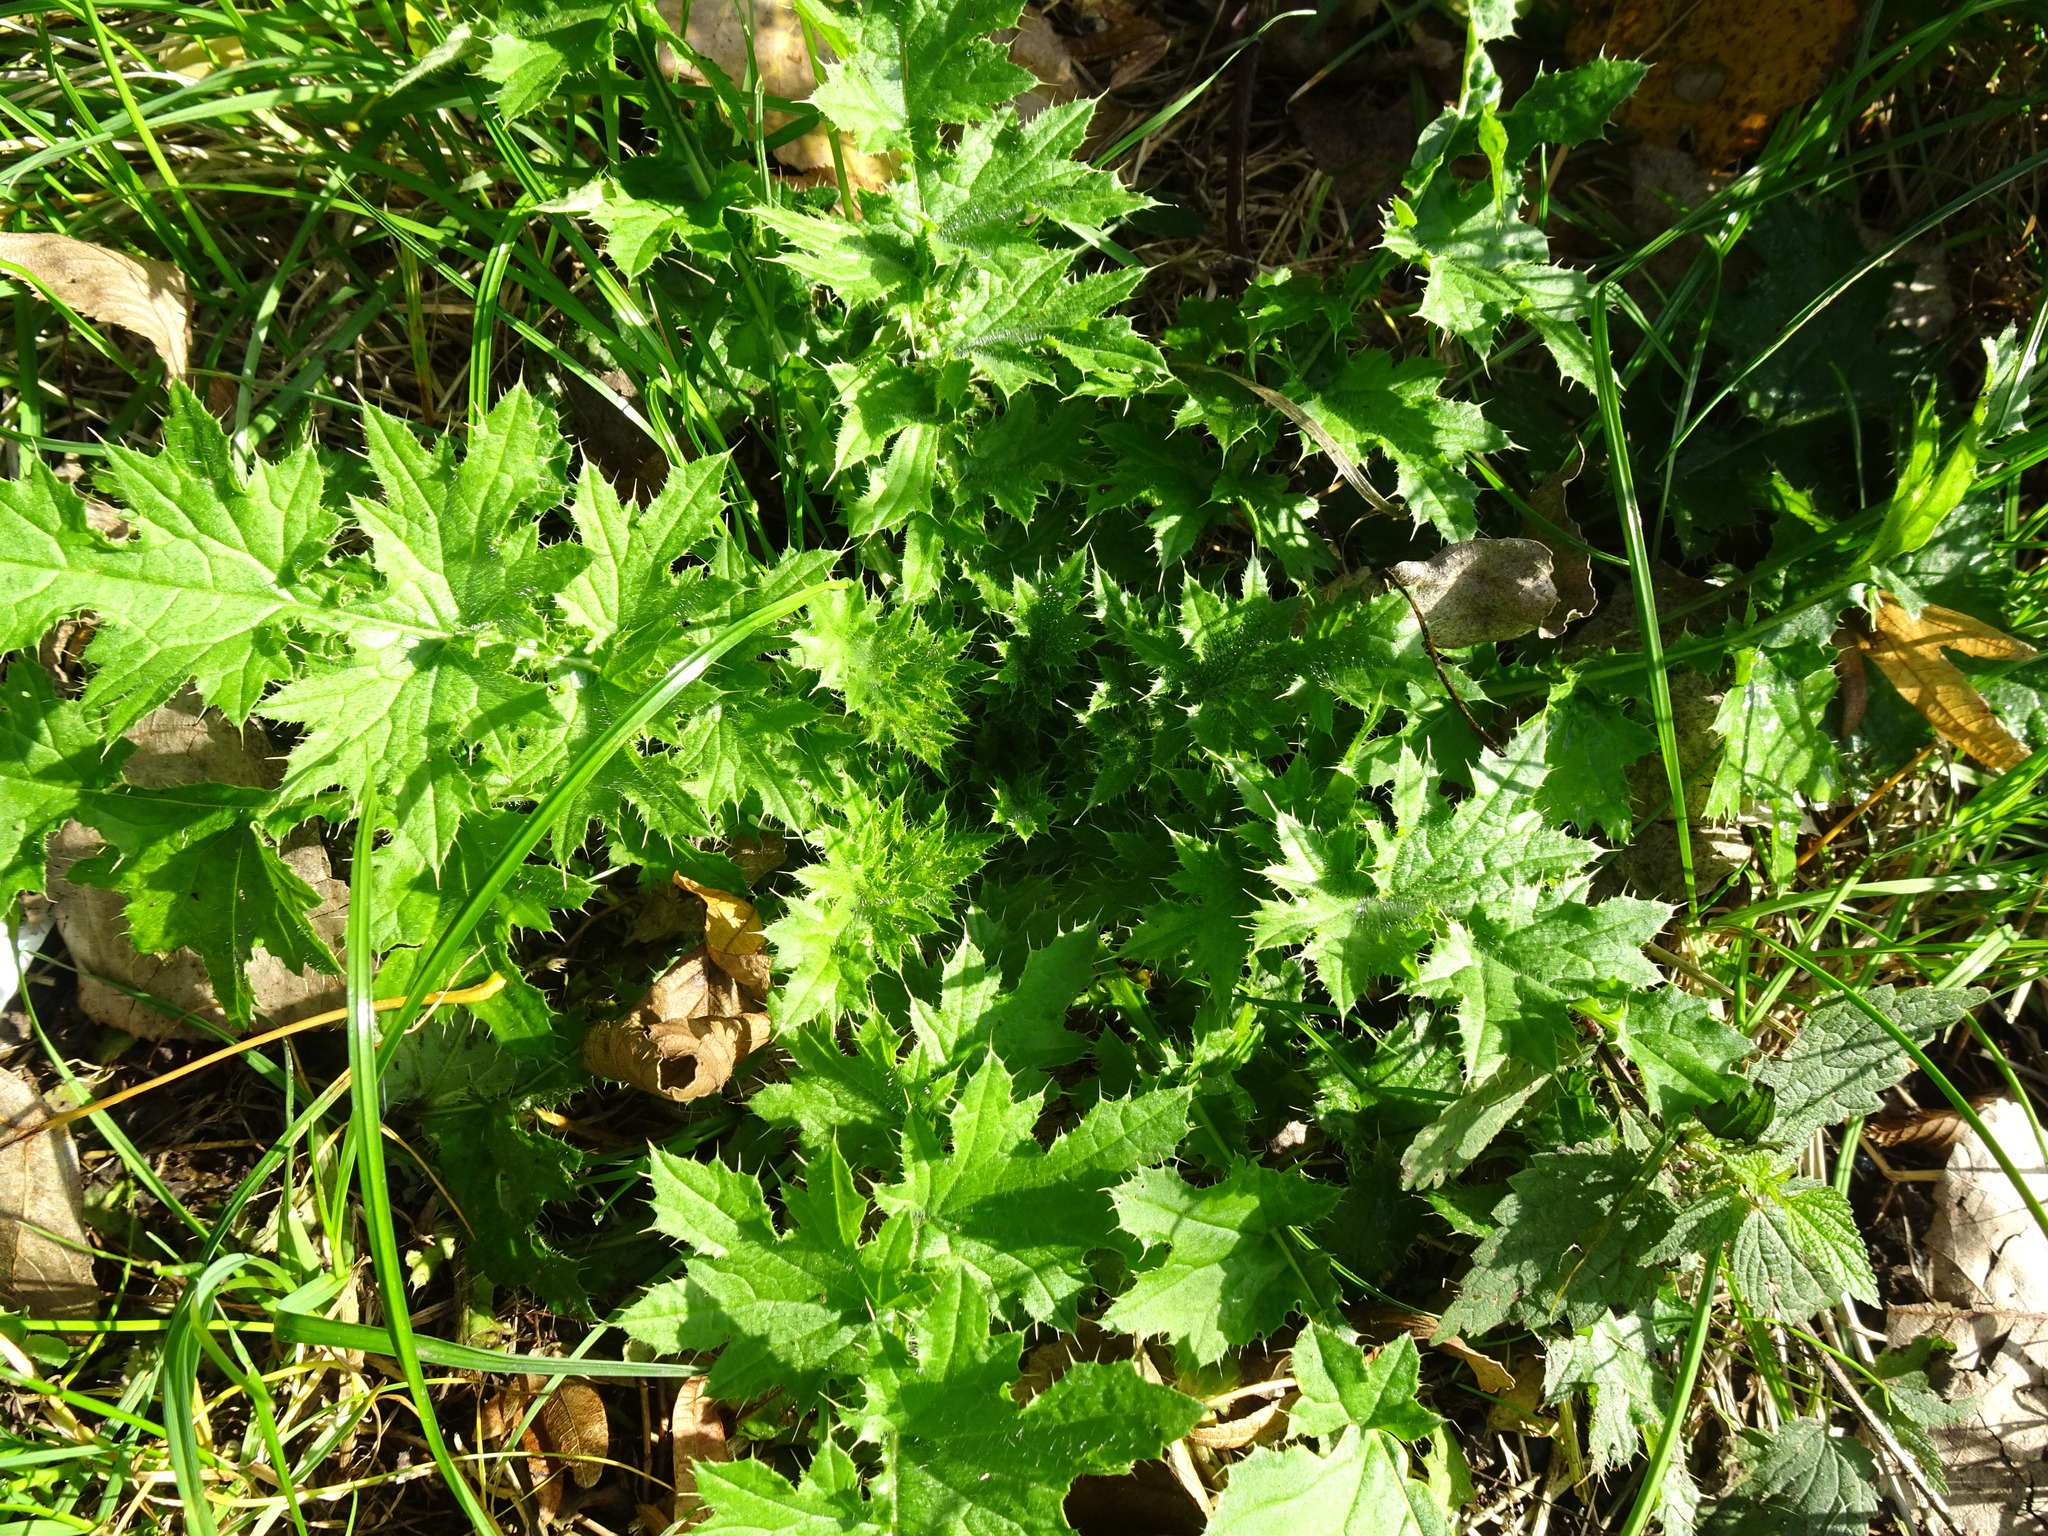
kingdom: Plantae
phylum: Tracheophyta
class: Magnoliopsida
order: Asterales
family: Asteraceae
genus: Carduus
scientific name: Carduus crispus
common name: Welted thistle
